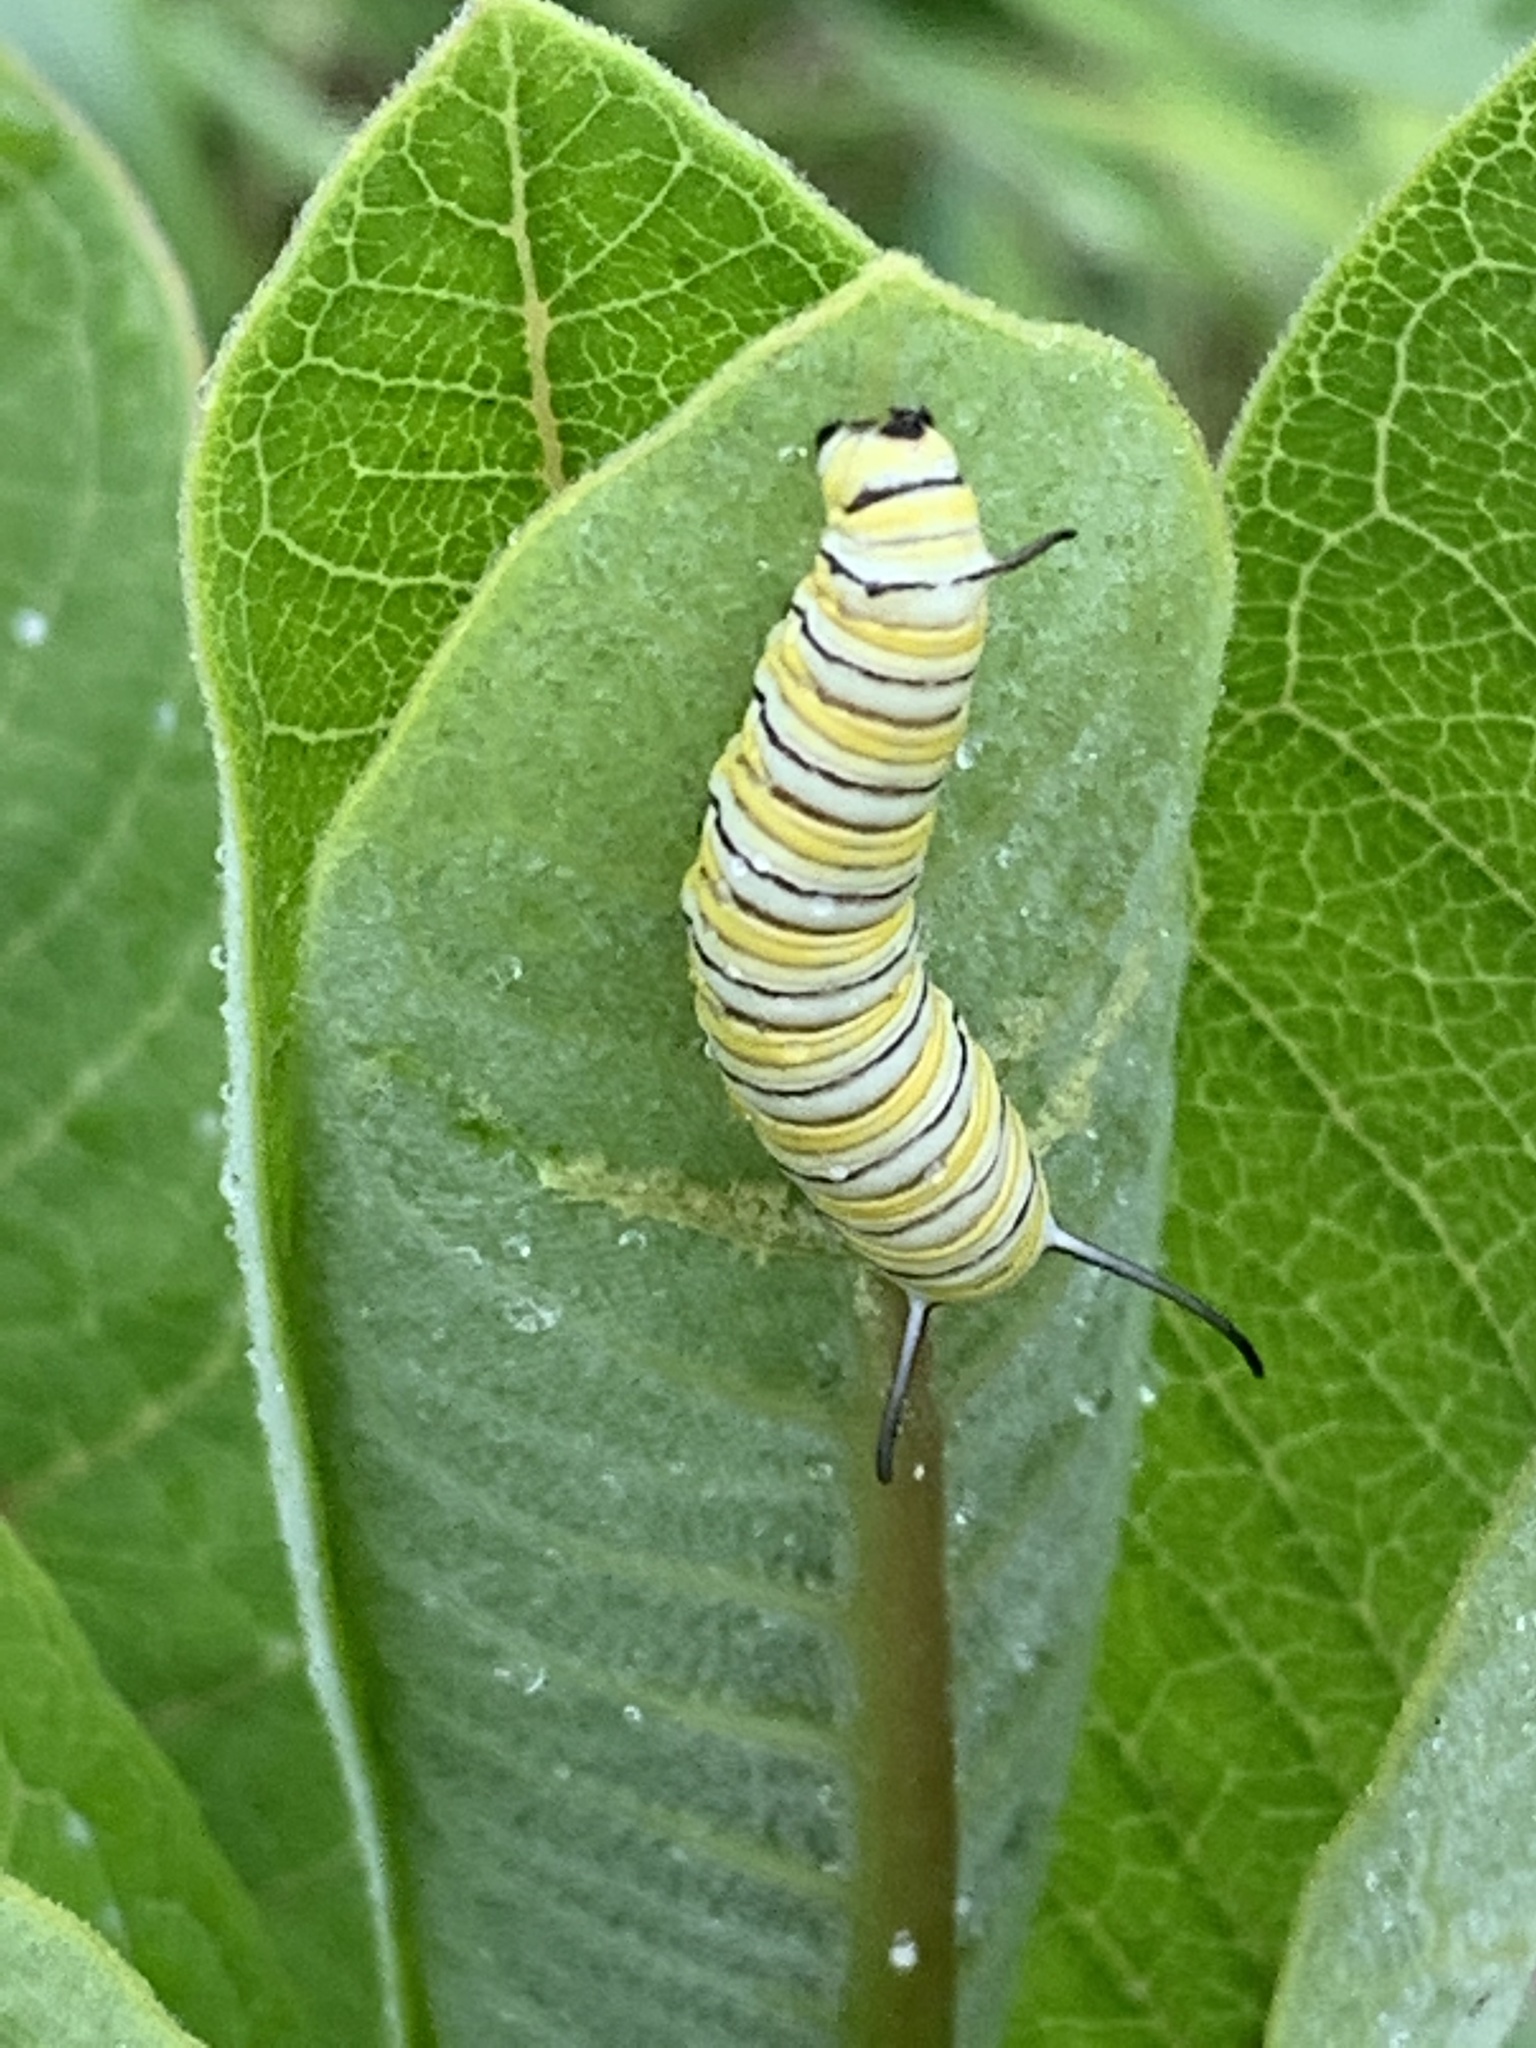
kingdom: Animalia
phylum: Arthropoda
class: Insecta
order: Lepidoptera
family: Nymphalidae
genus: Danaus
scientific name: Danaus plexippus
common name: Monarch
